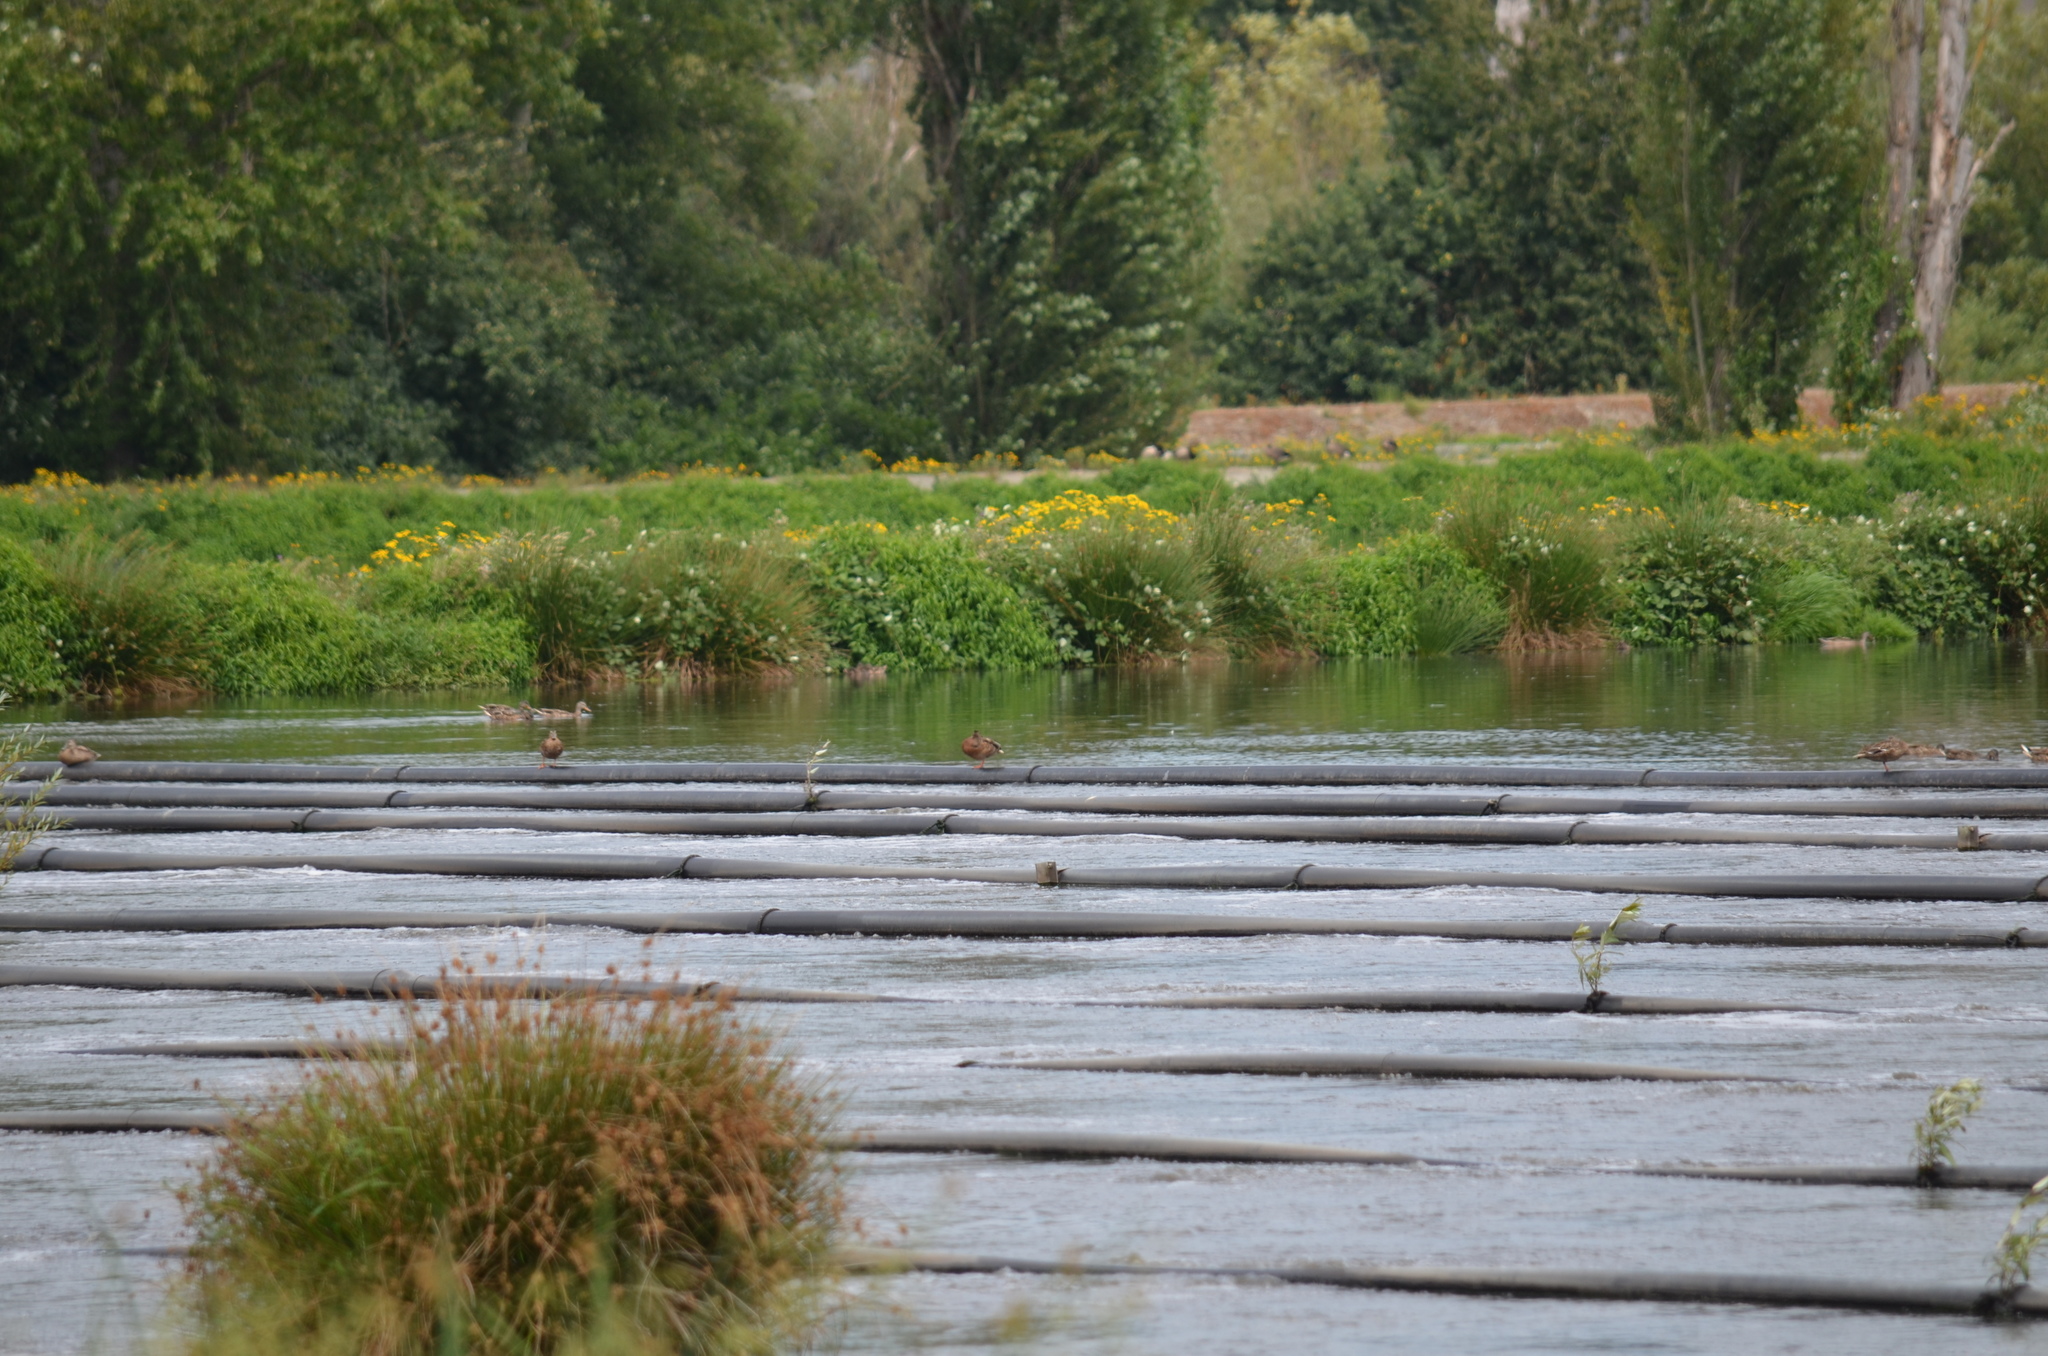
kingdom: Animalia
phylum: Chordata
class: Aves
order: Anseriformes
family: Anatidae
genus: Anas
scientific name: Anas platyrhynchos
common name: Mallard
